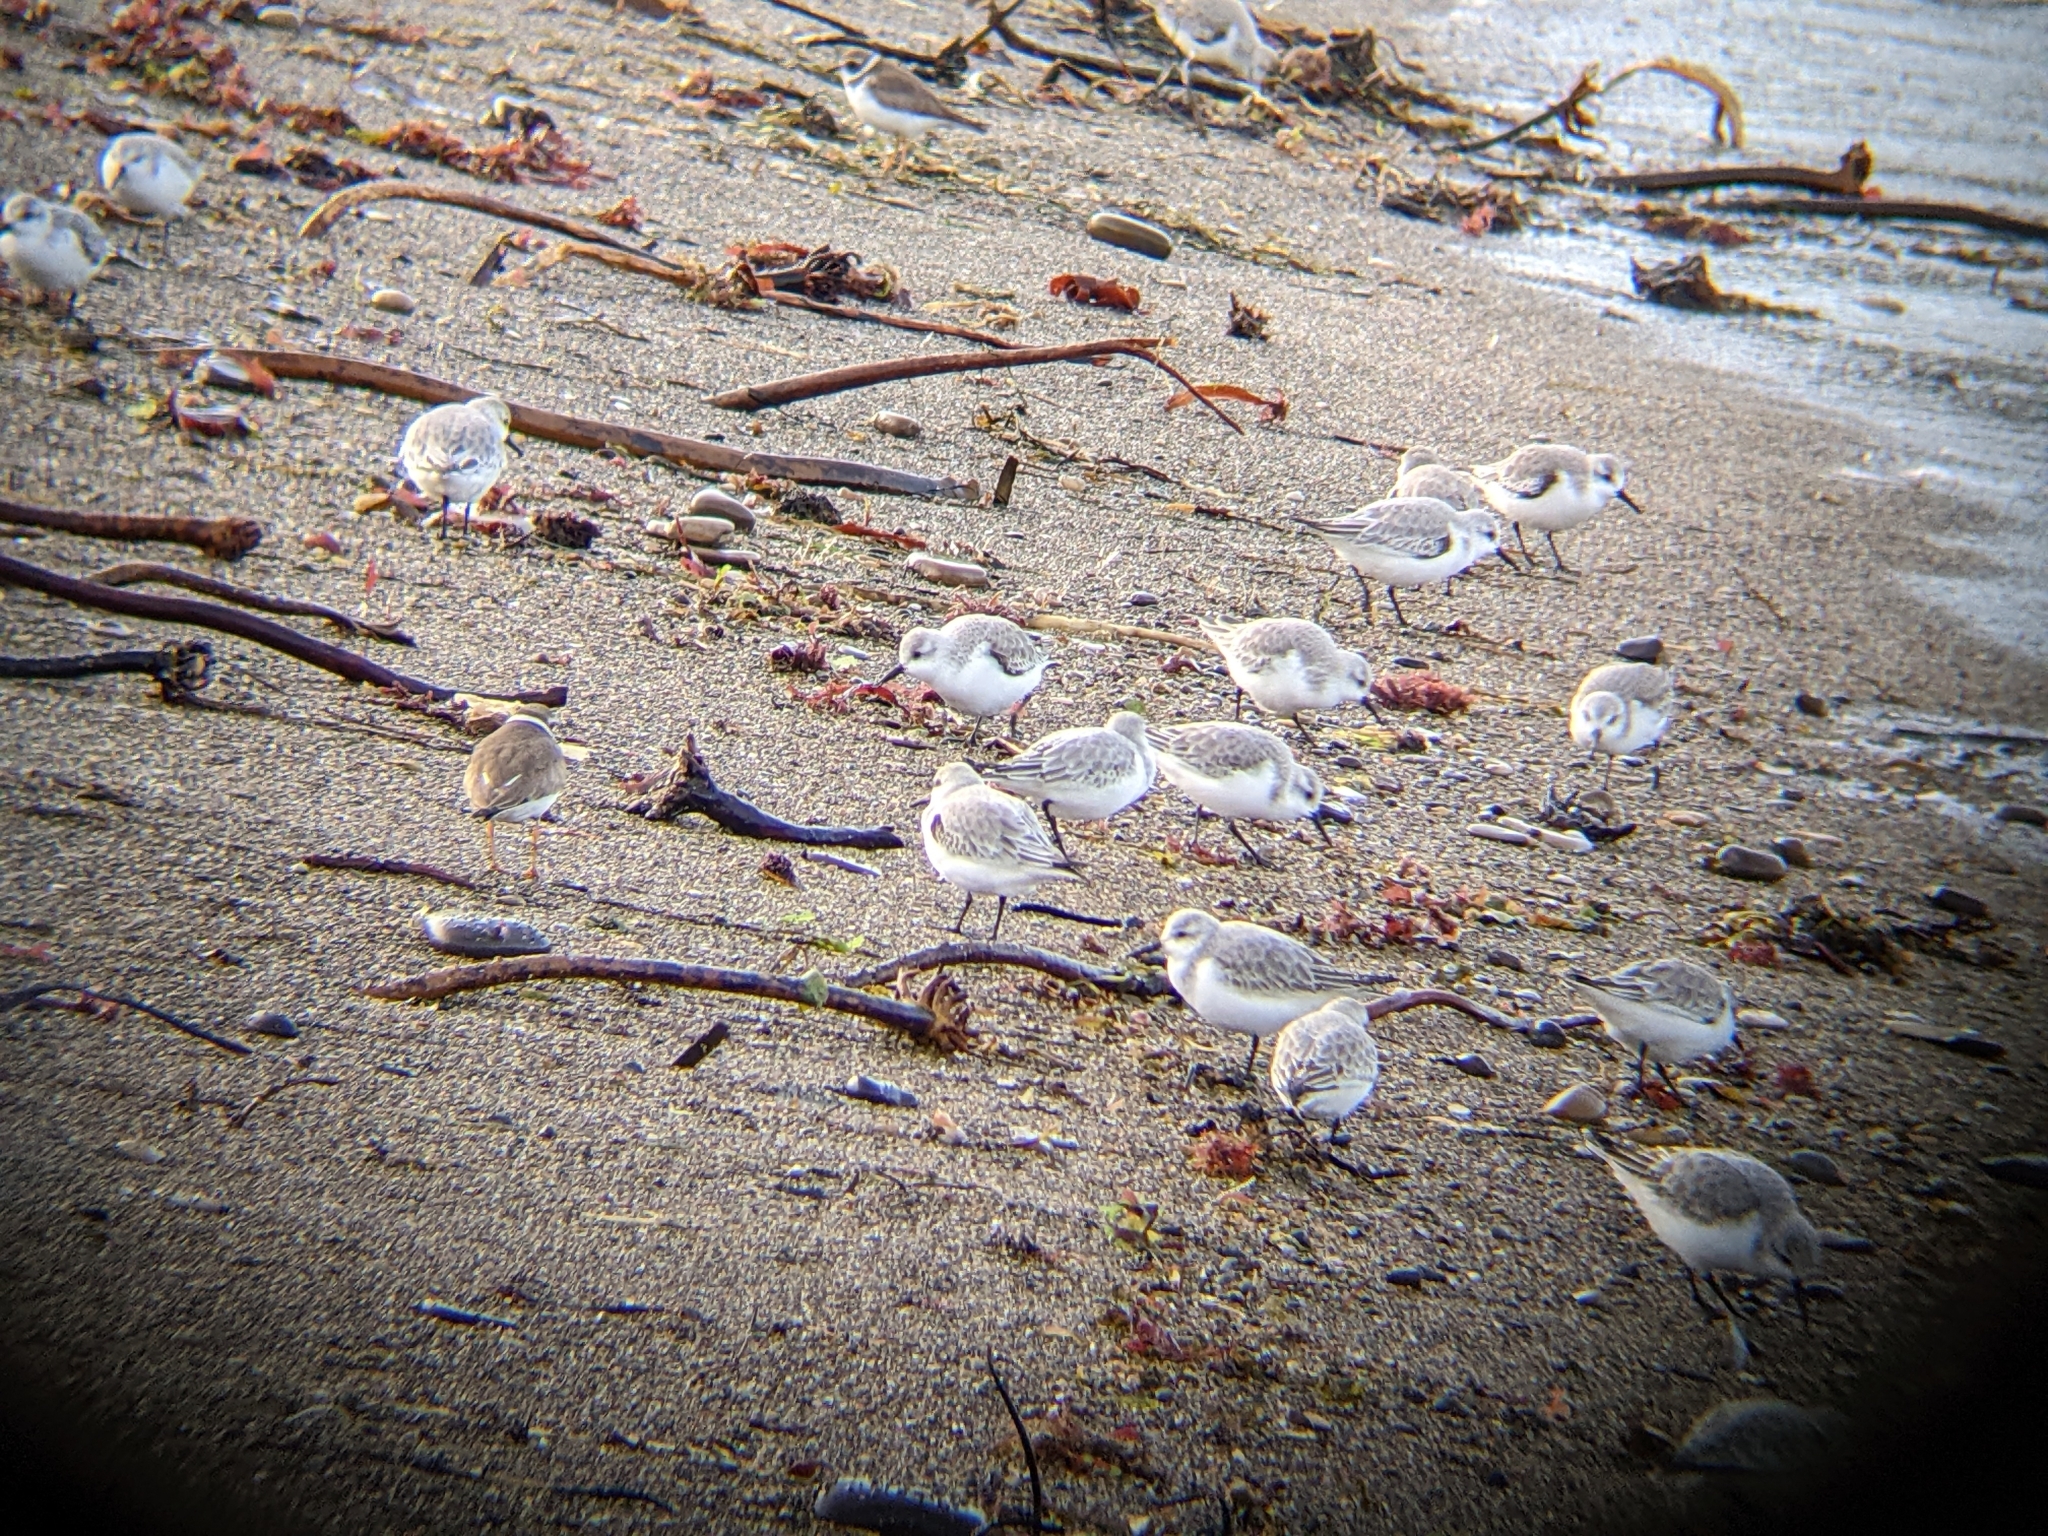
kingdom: Animalia
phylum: Chordata
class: Aves
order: Charadriiformes
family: Scolopacidae
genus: Calidris
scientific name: Calidris alba
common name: Sanderling
